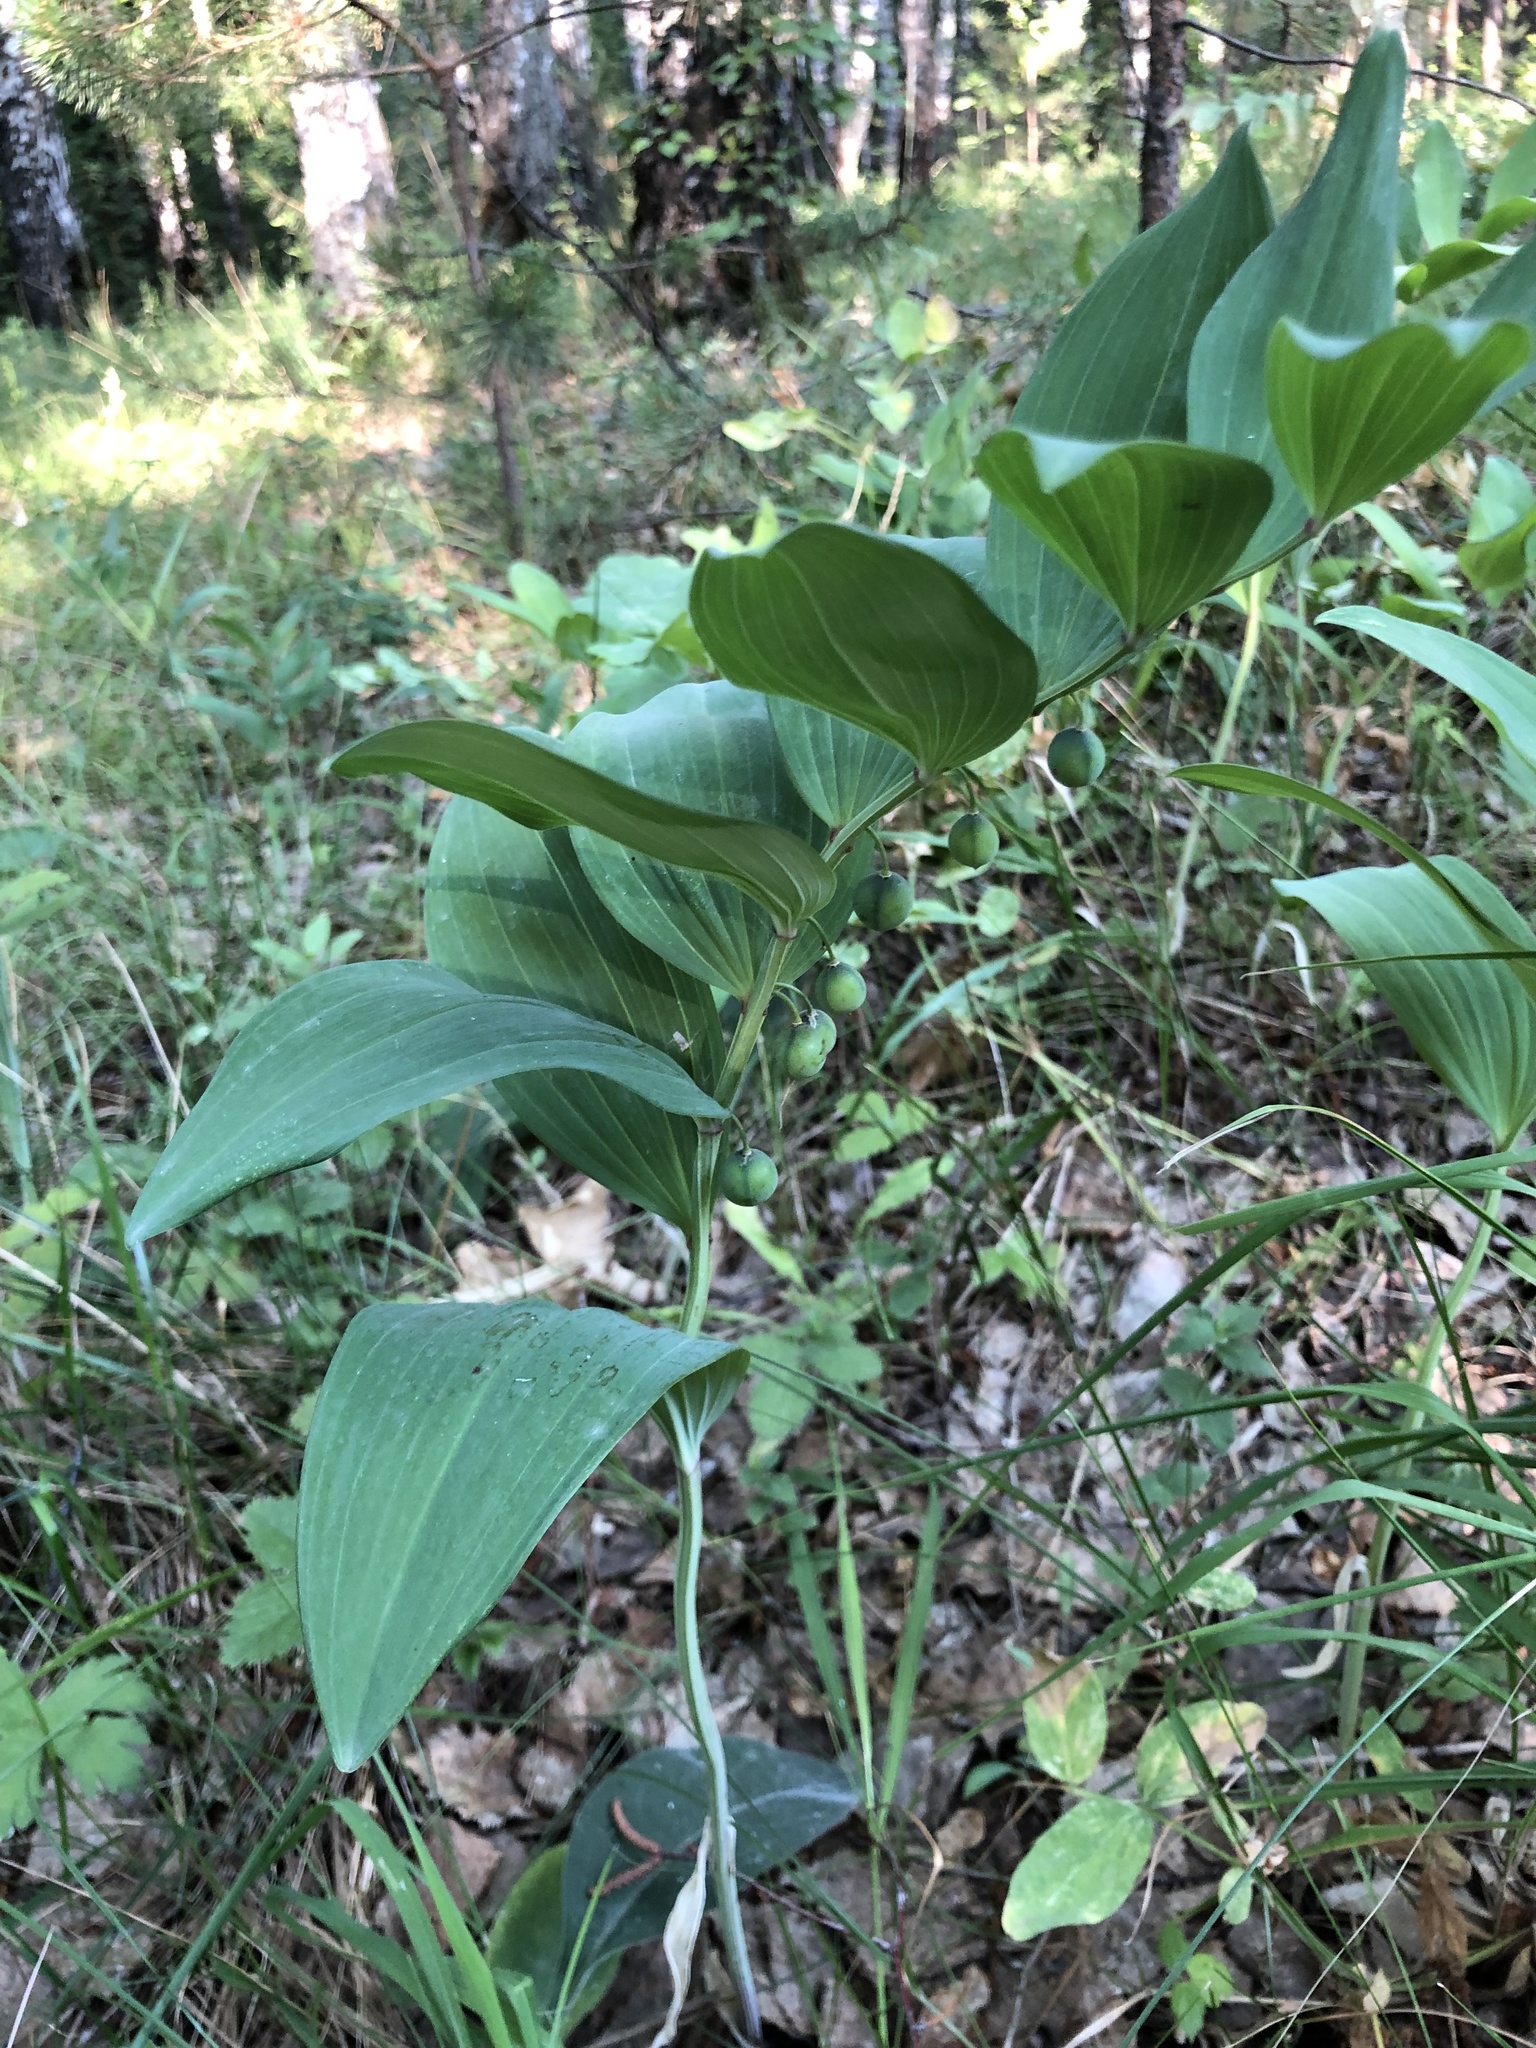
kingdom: Plantae
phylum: Tracheophyta
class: Liliopsida
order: Asparagales
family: Asparagaceae
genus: Polygonatum
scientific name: Polygonatum odoratum
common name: Angular solomon's-seal
